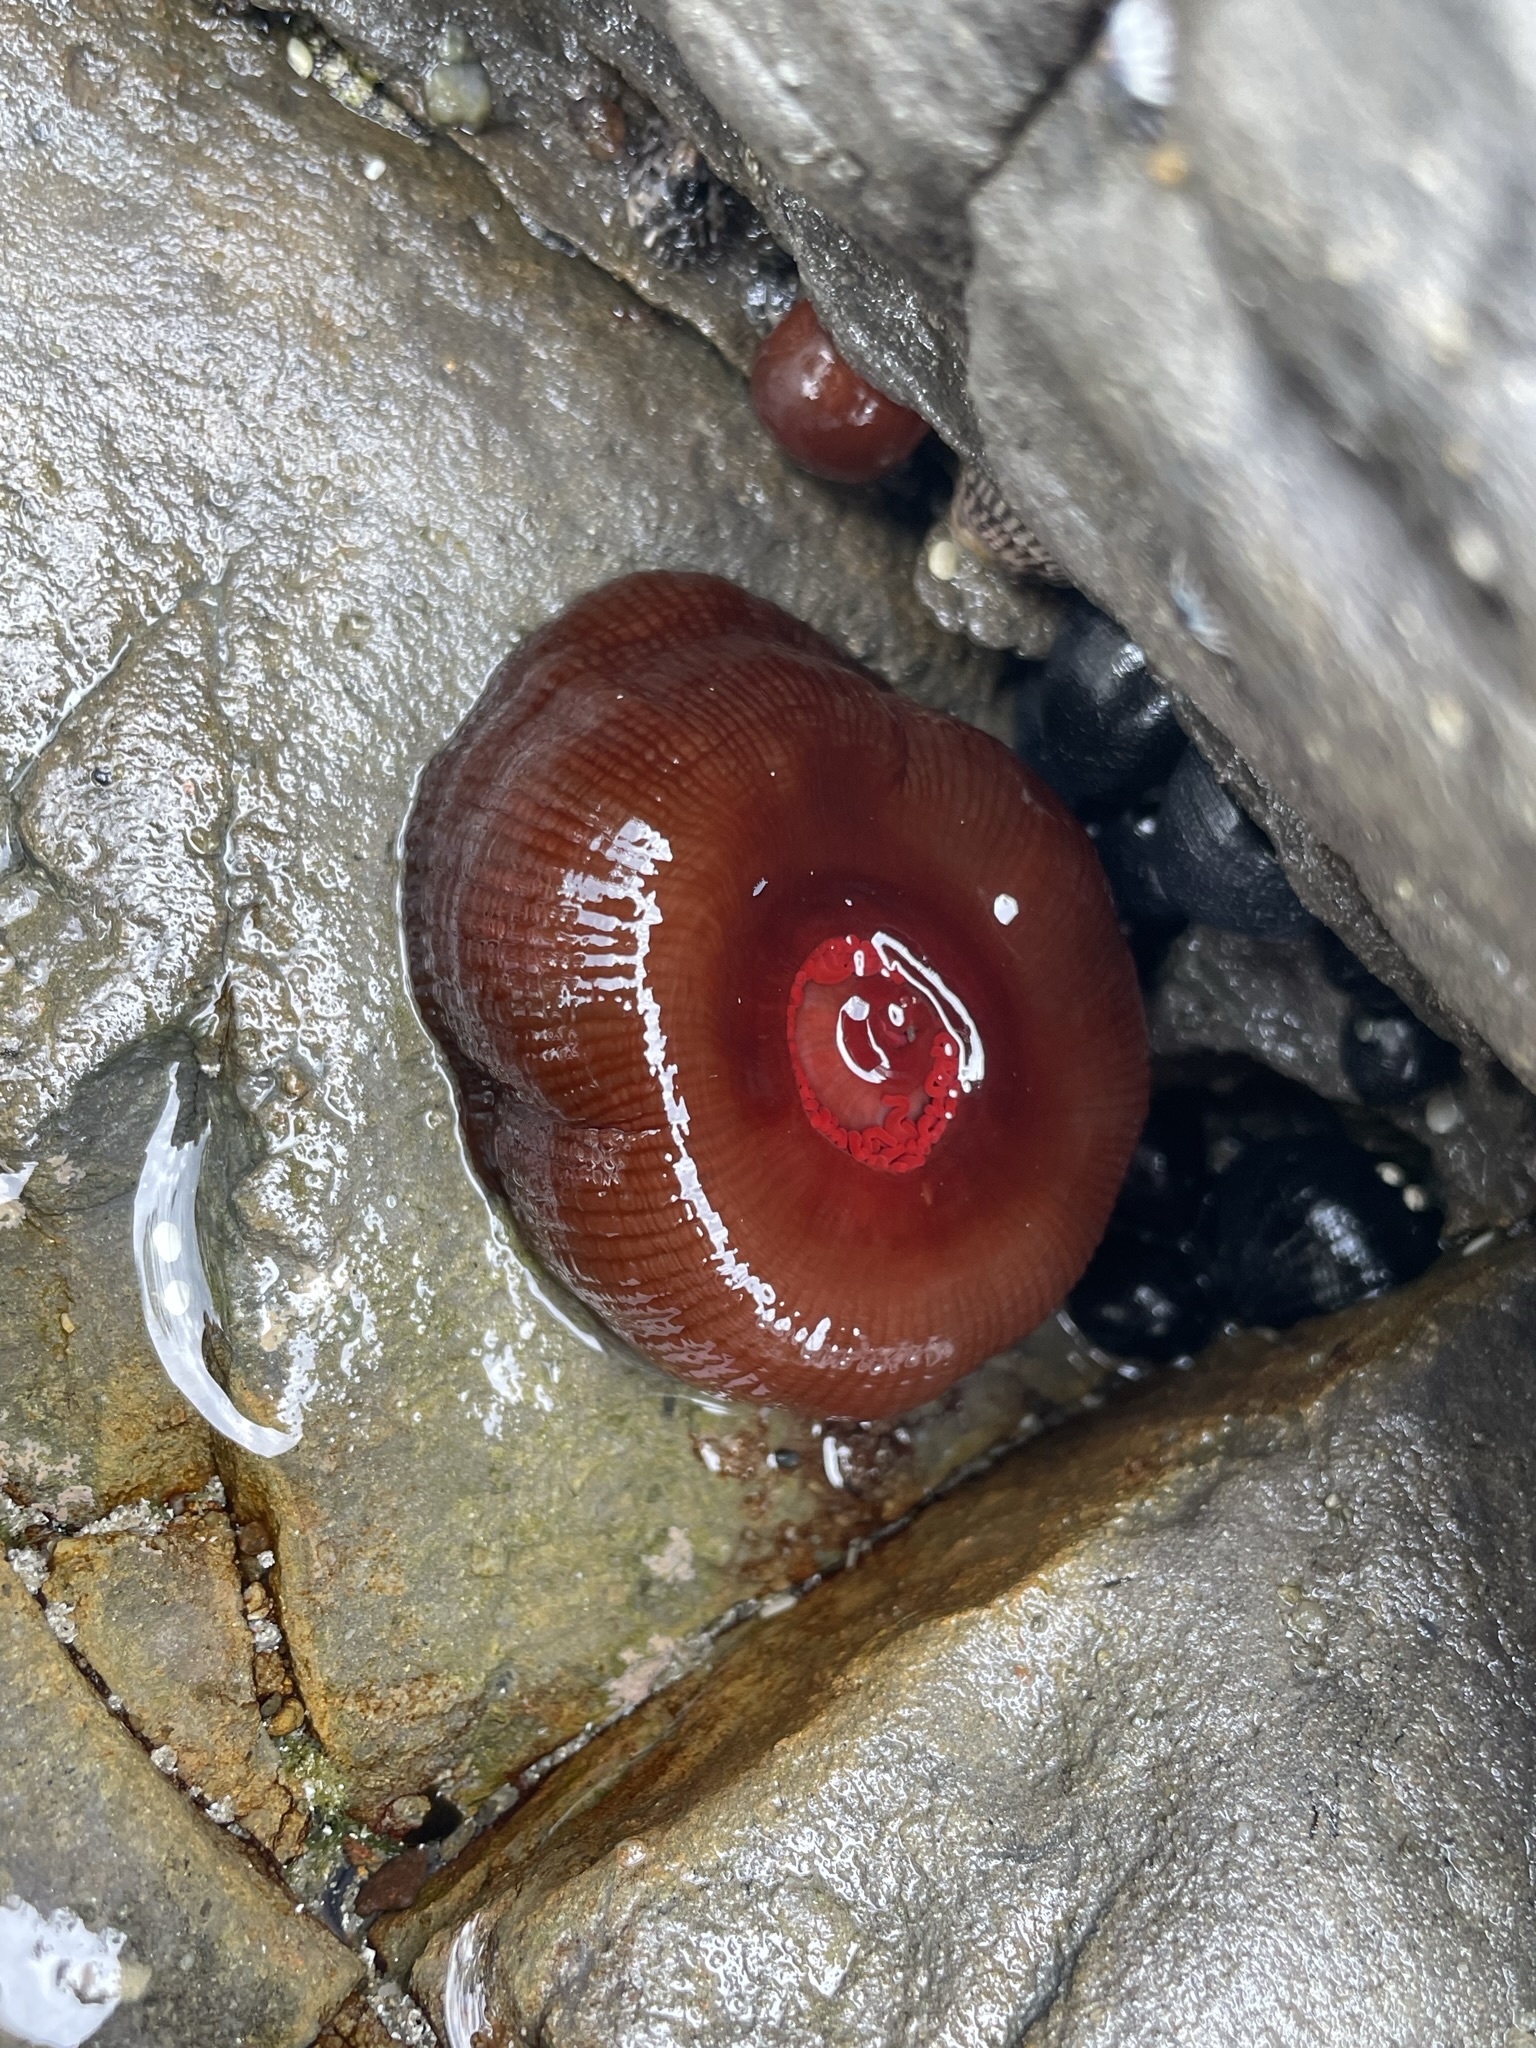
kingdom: Animalia
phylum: Cnidaria
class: Anthozoa
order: Actiniaria
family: Actiniidae
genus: Actinia
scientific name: Actinia tenebrosa
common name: Waratah anemone
